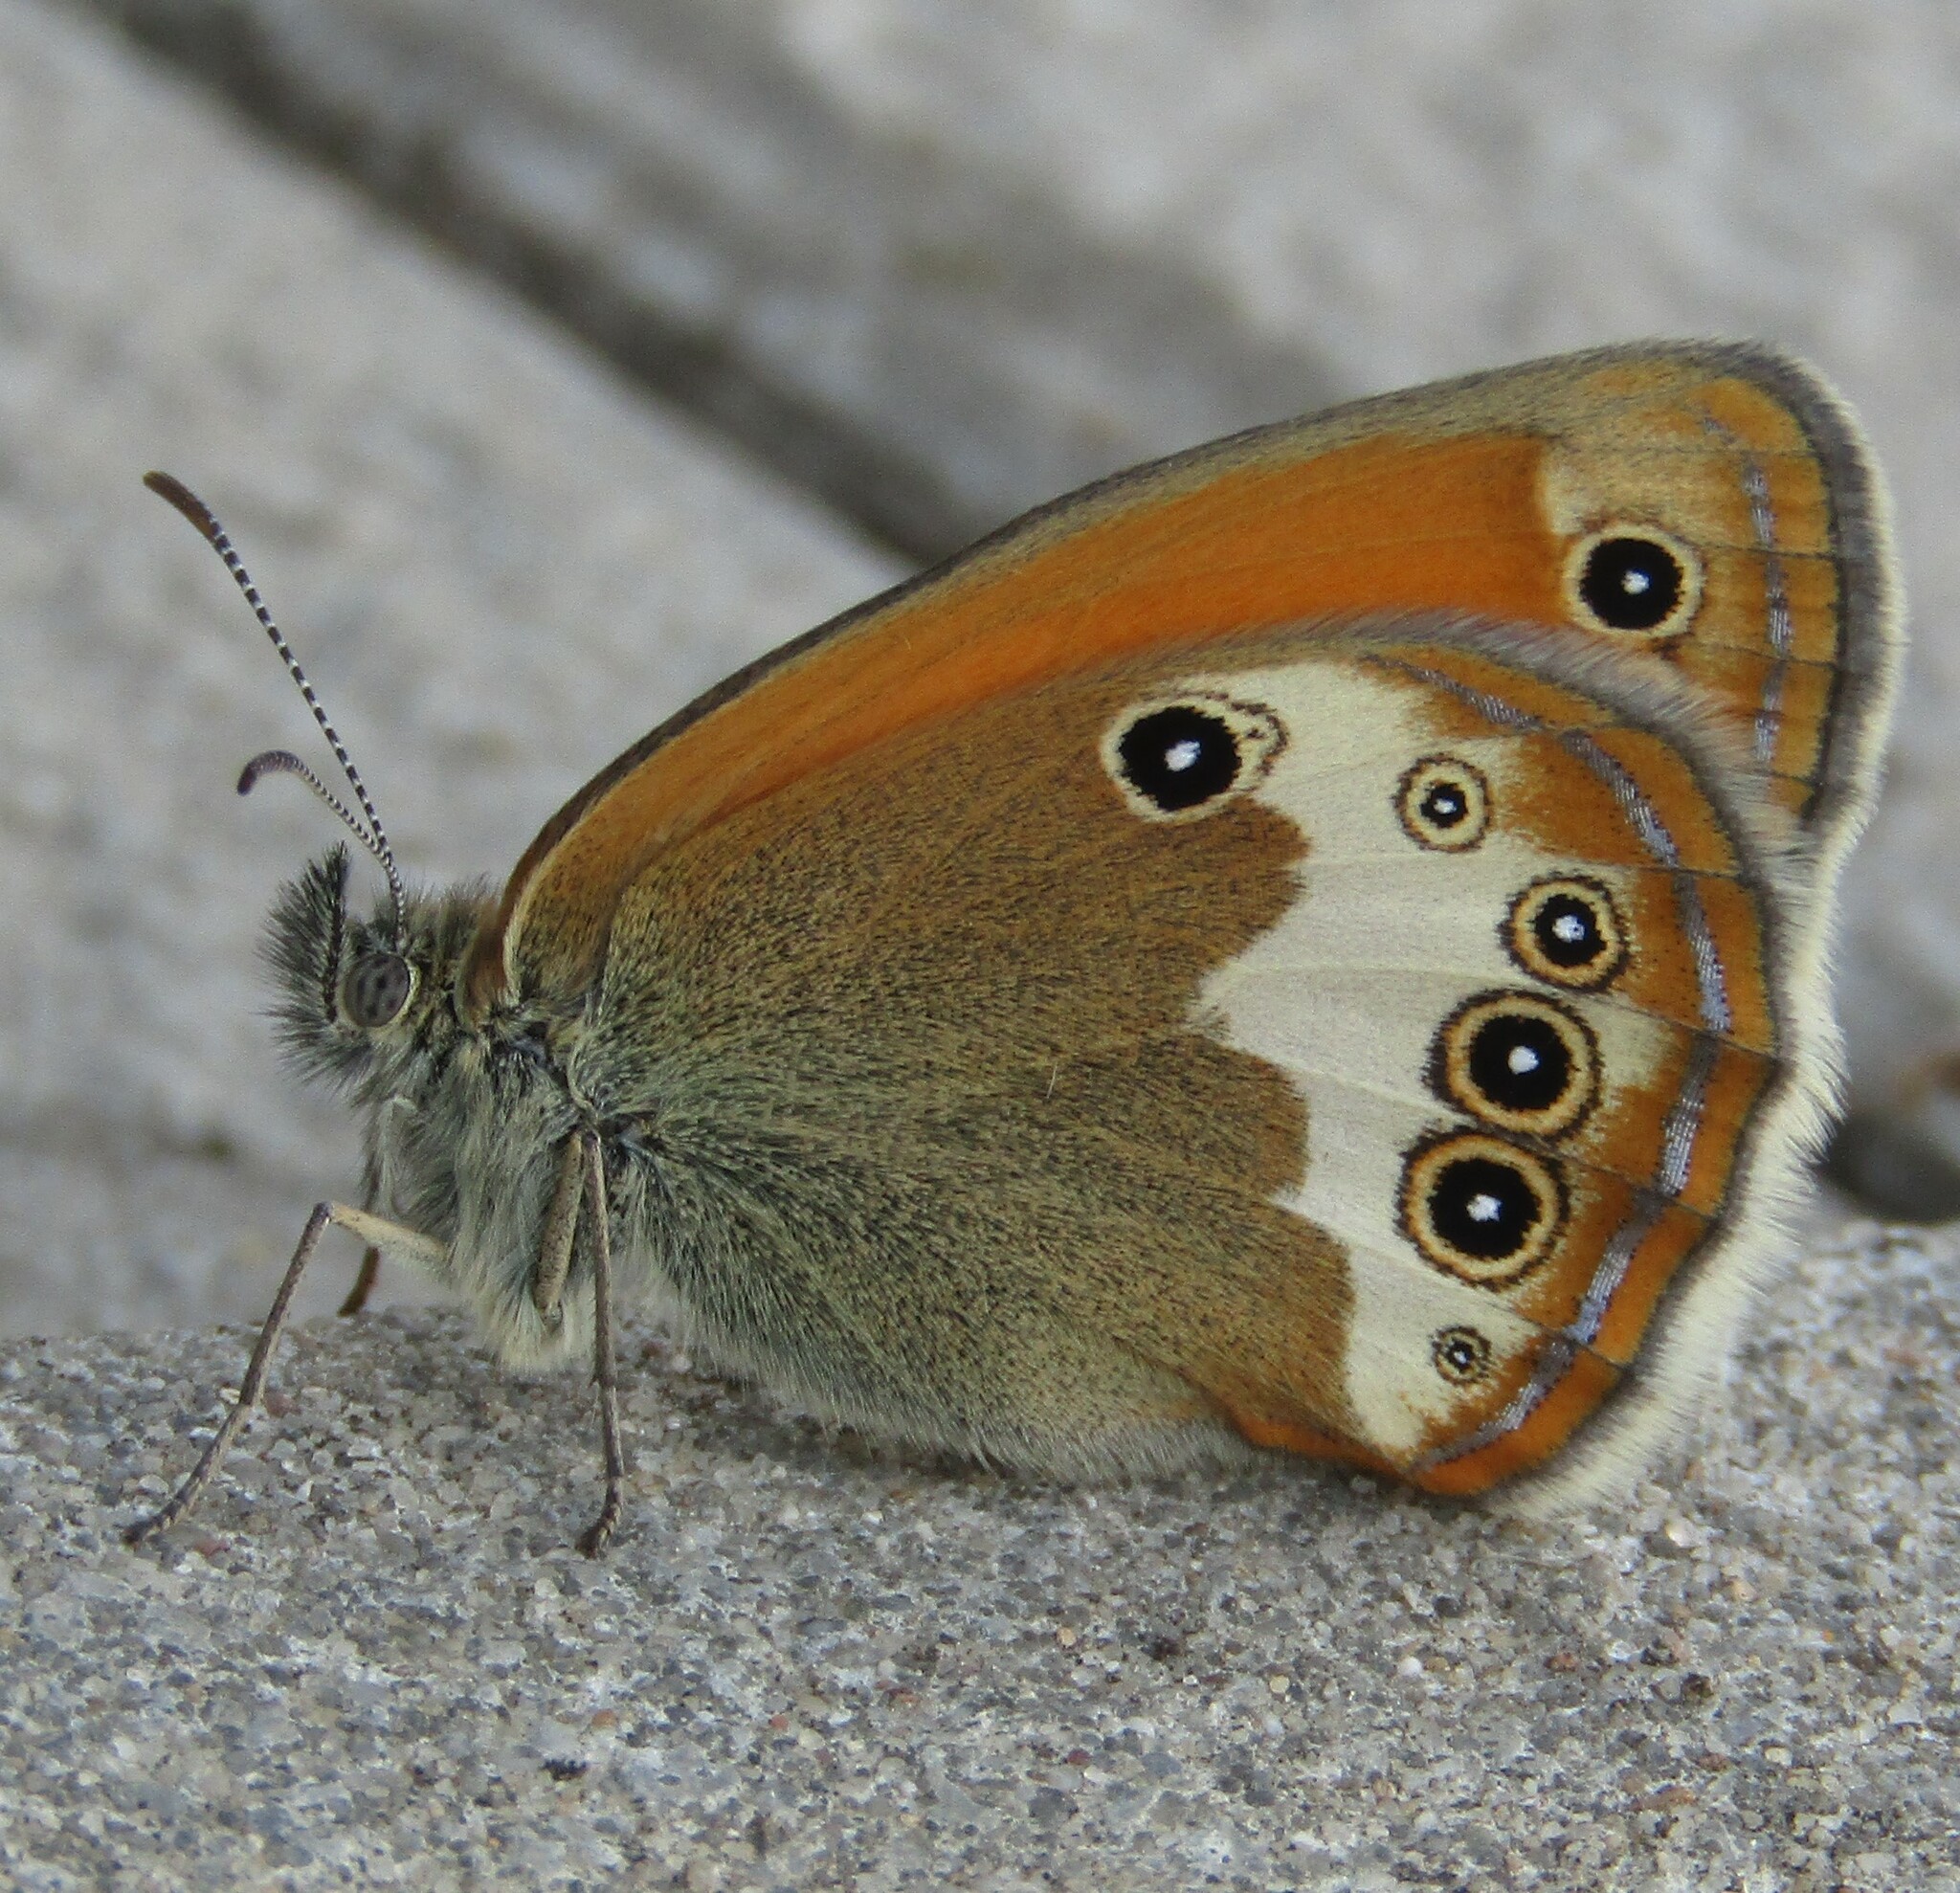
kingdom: Animalia
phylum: Arthropoda
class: Insecta
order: Lepidoptera
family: Nymphalidae
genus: Coenonympha
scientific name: Coenonympha arcania
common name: Pearly heath
